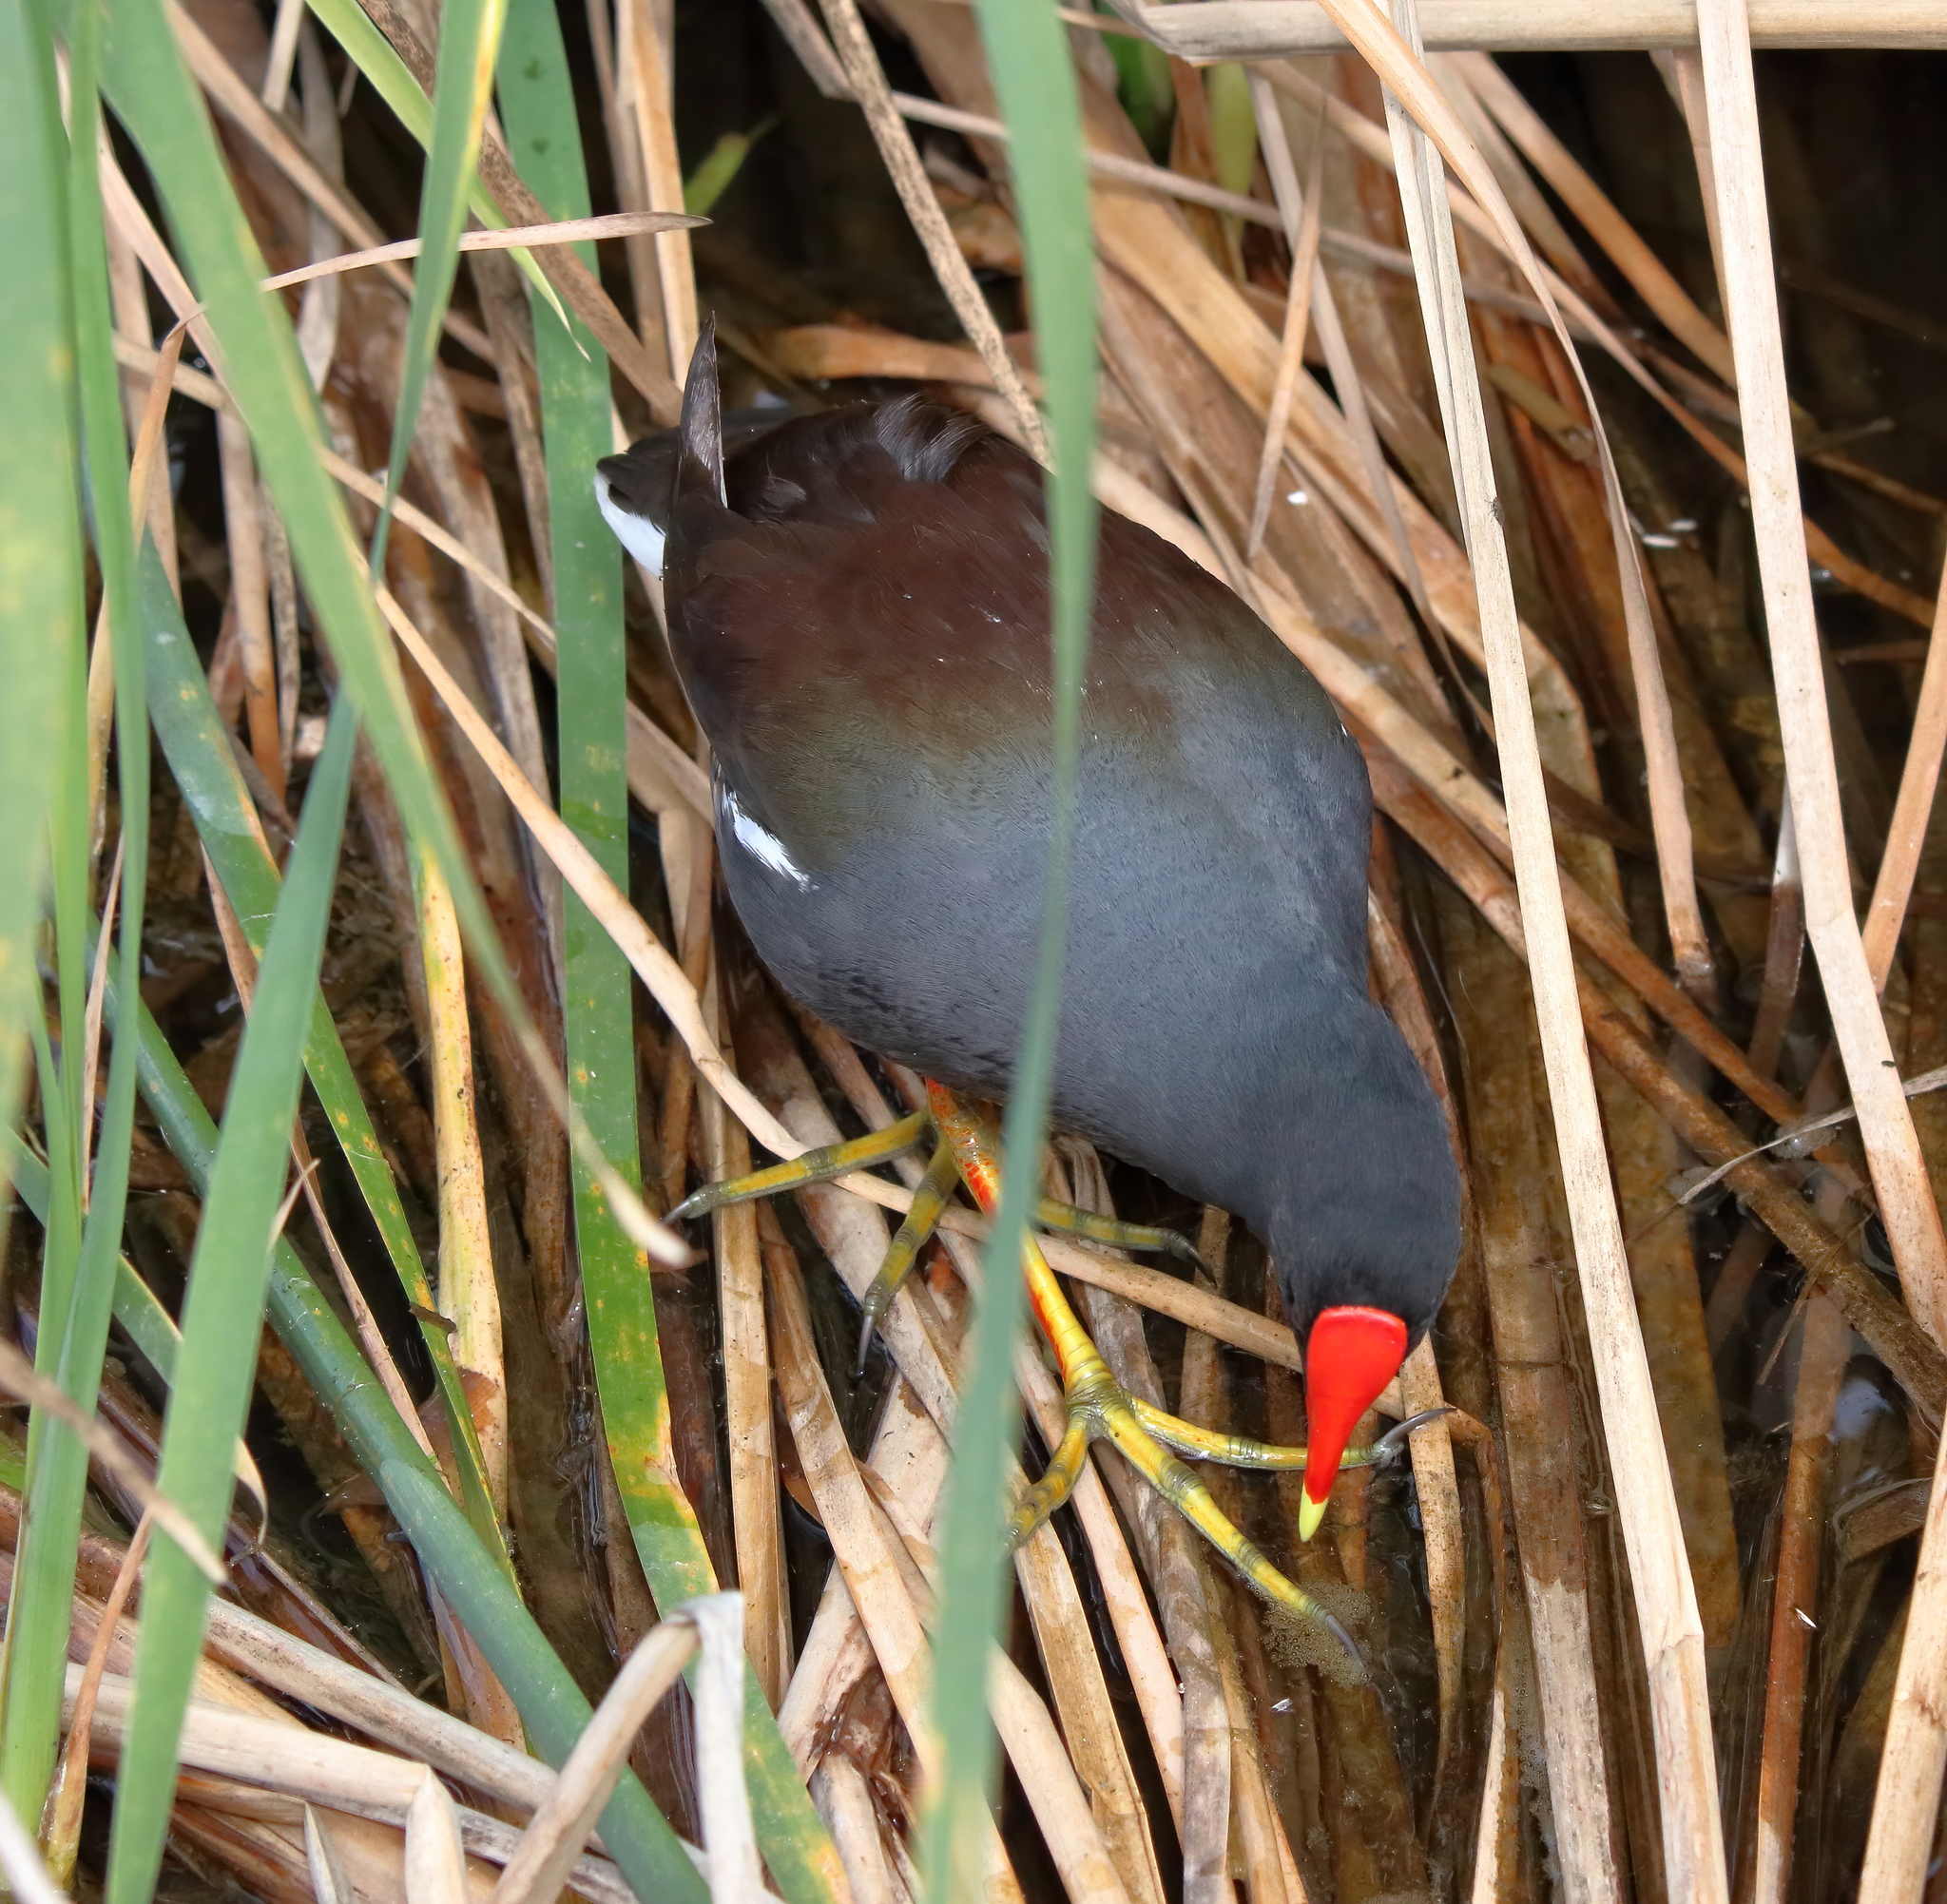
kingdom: Animalia
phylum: Chordata
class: Aves
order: Gruiformes
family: Rallidae
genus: Gallinula
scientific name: Gallinula chloropus
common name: Common moorhen
